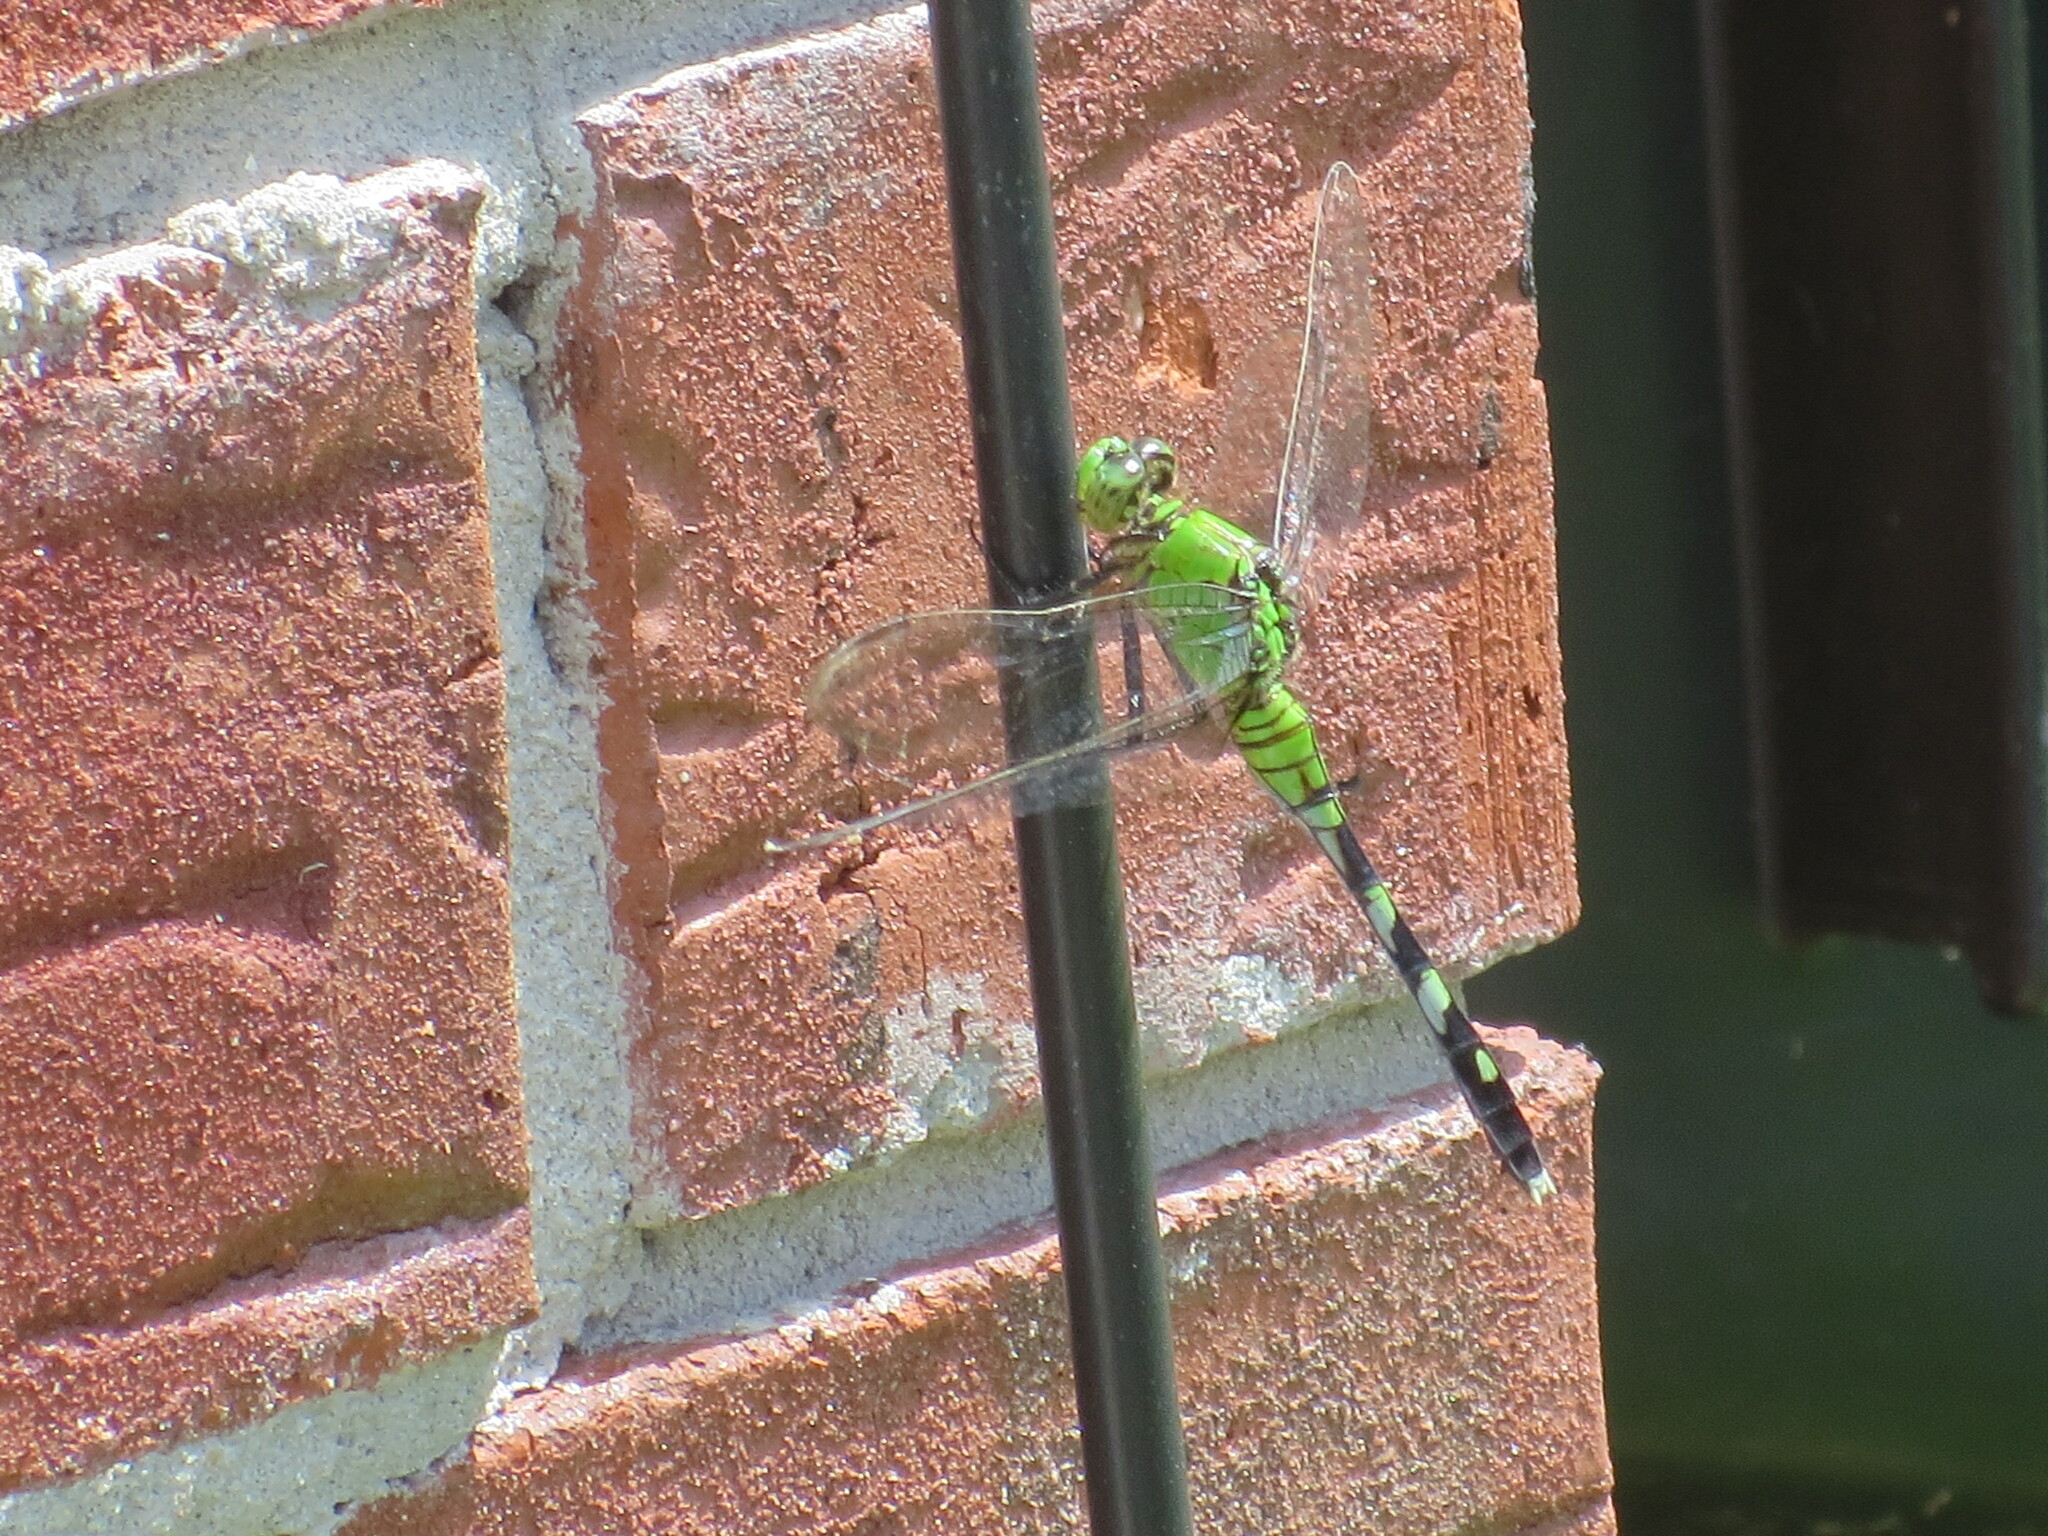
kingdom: Animalia
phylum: Arthropoda
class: Insecta
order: Odonata
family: Libellulidae
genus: Erythemis
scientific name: Erythemis simplicicollis
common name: Eastern pondhawk
